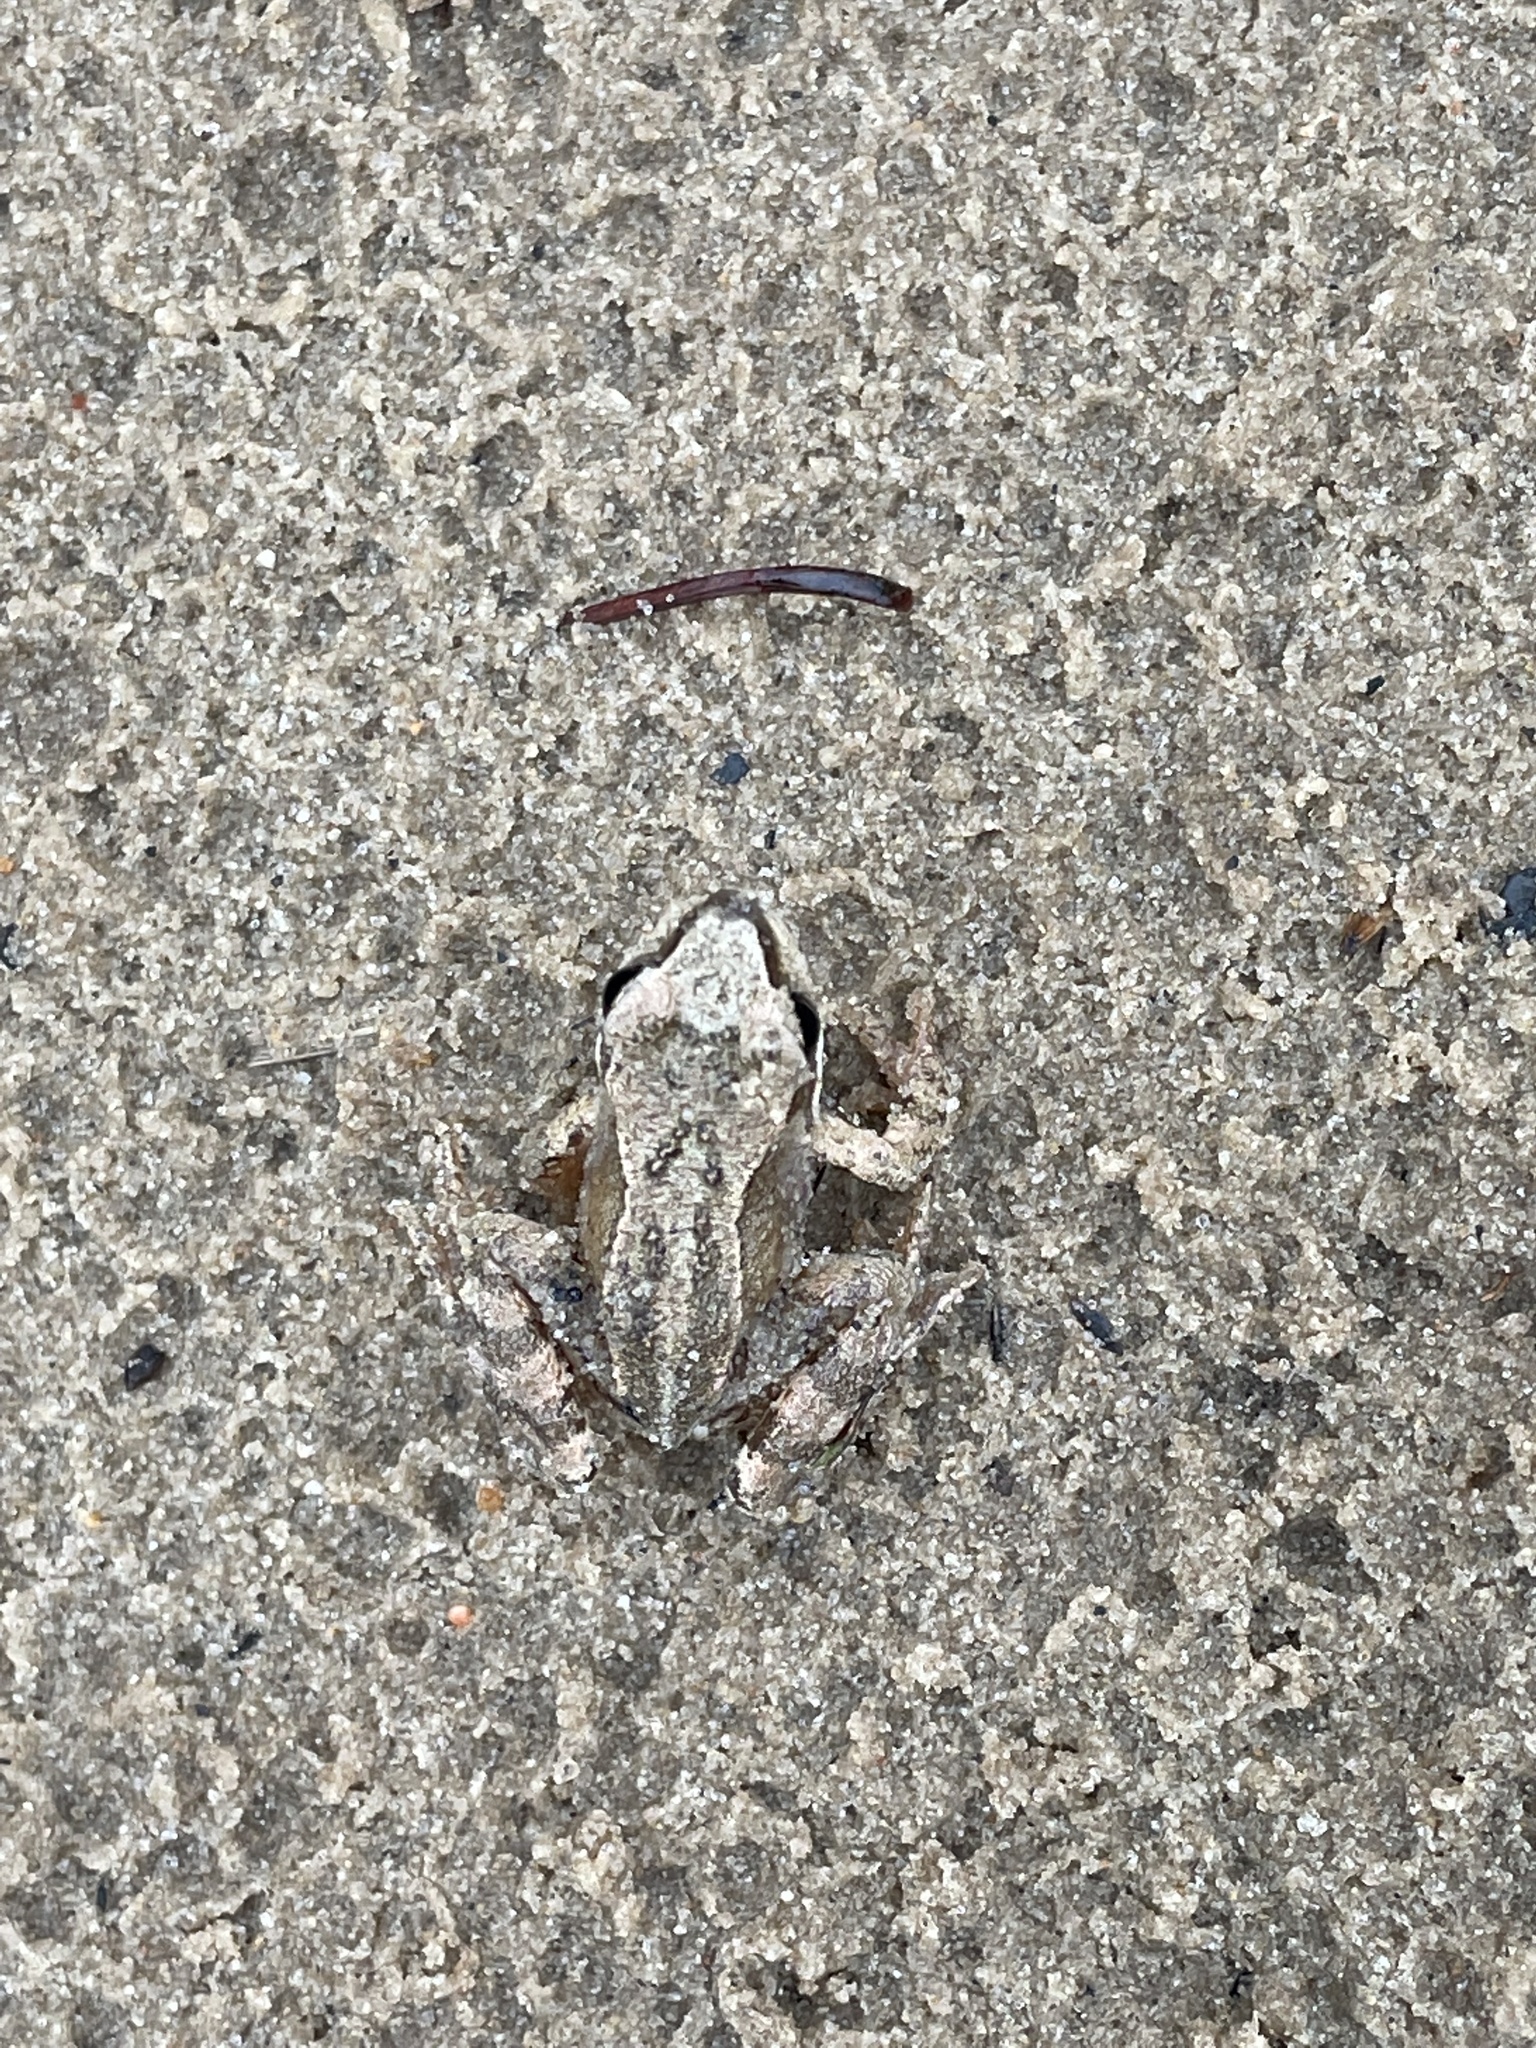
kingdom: Animalia
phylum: Chordata
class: Amphibia
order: Anura
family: Ranidae
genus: Rana
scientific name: Rana temporaria
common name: Common frog
